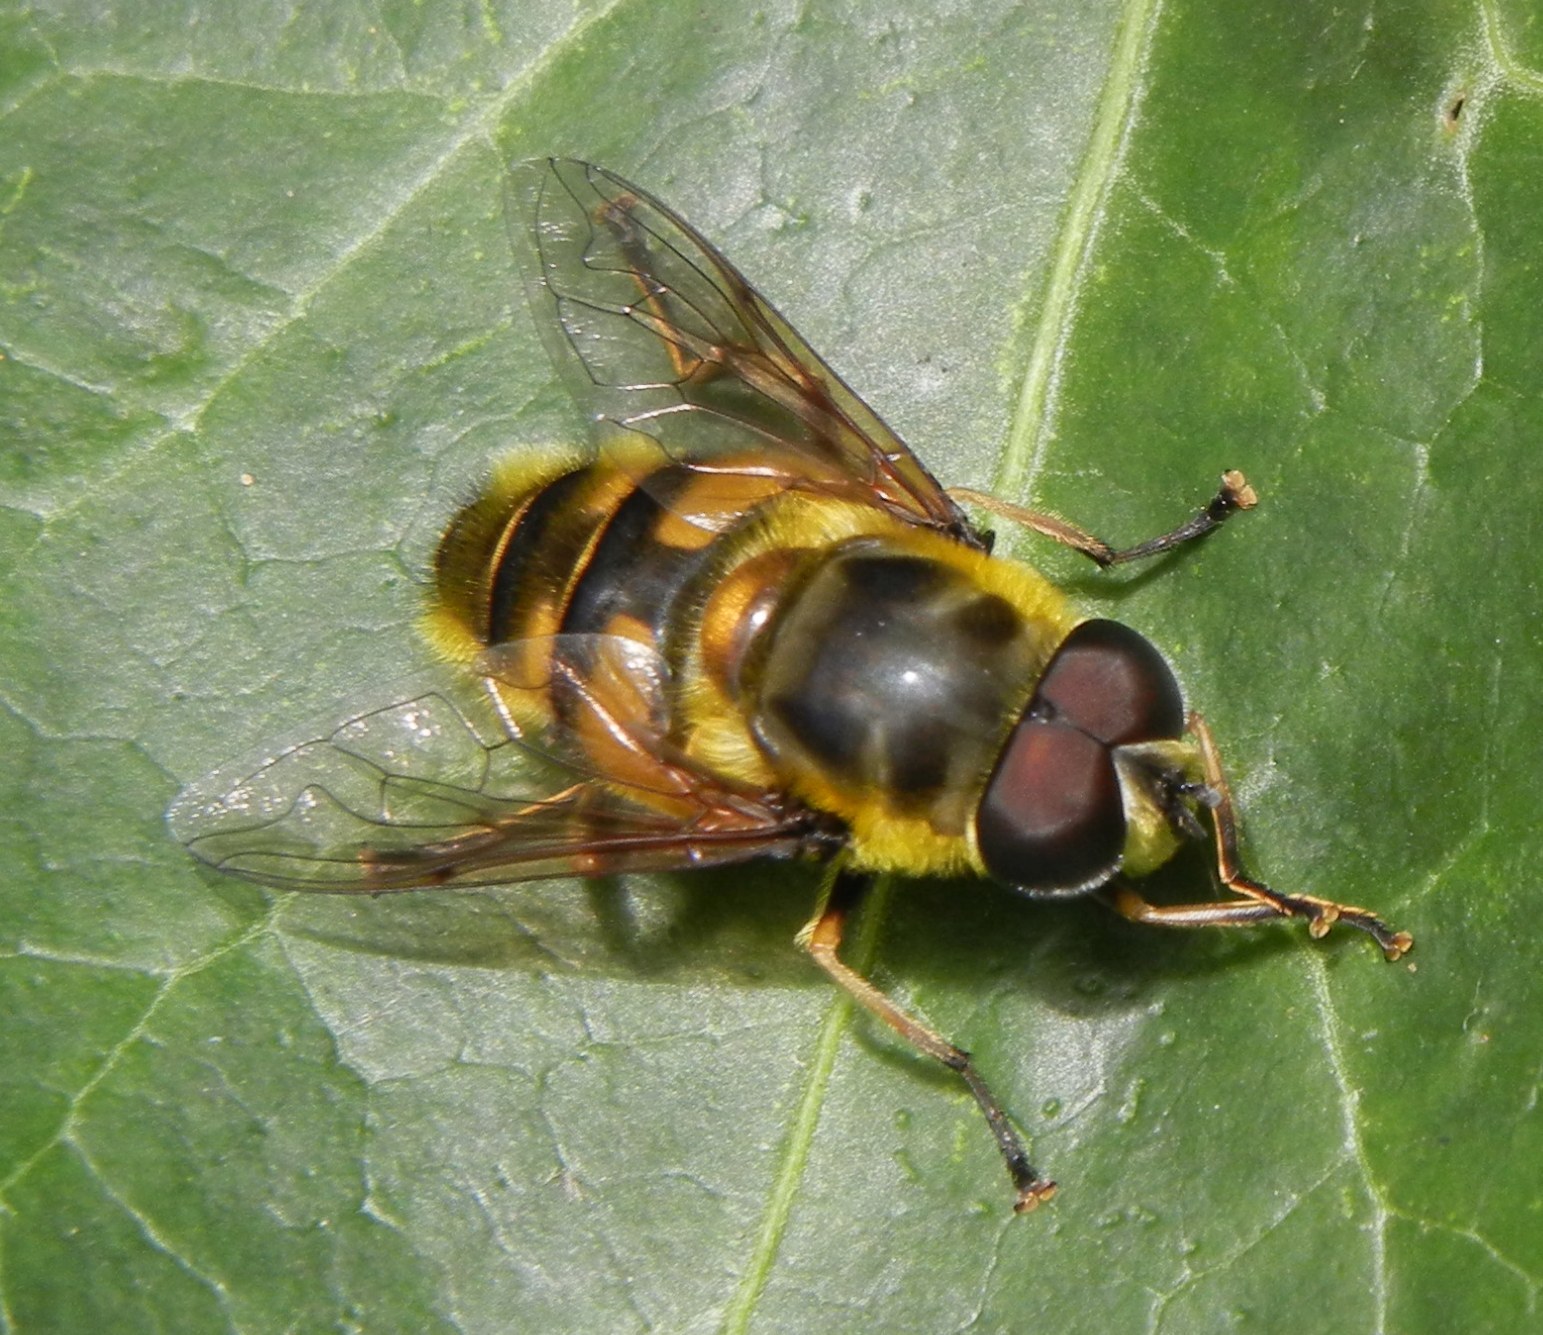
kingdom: Animalia
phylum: Arthropoda
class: Insecta
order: Diptera
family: Syrphidae
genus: Myathropa
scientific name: Myathropa florea
